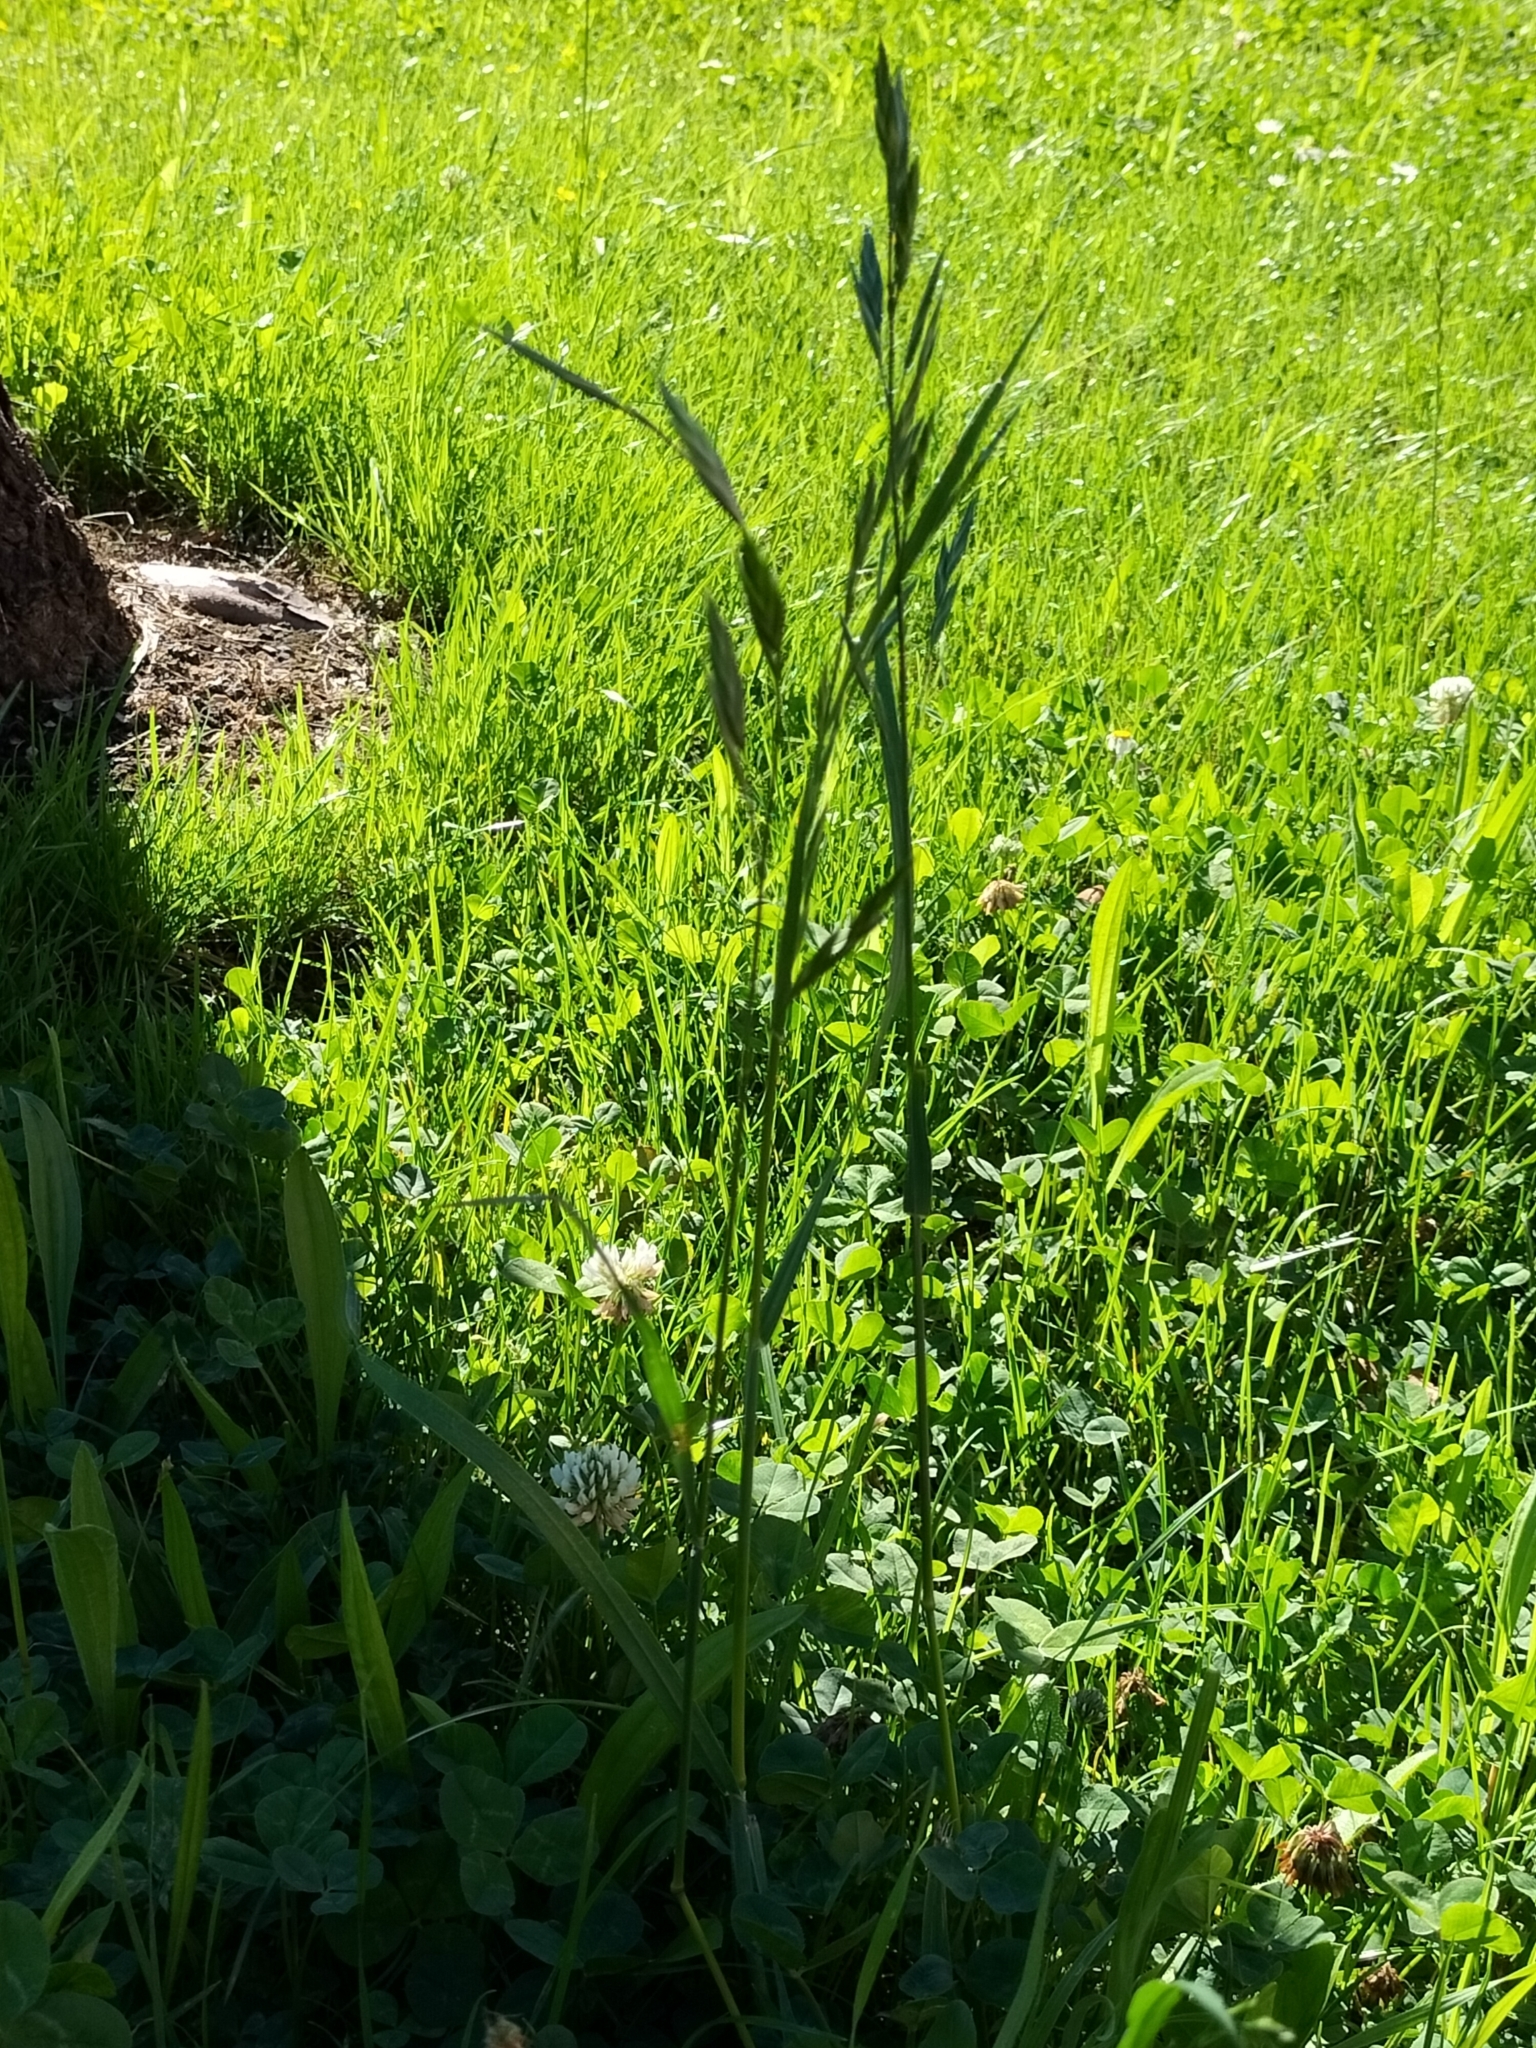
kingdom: Plantae
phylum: Tracheophyta
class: Liliopsida
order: Poales
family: Poaceae
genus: Bromus
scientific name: Bromus catharticus
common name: Rescuegrass
